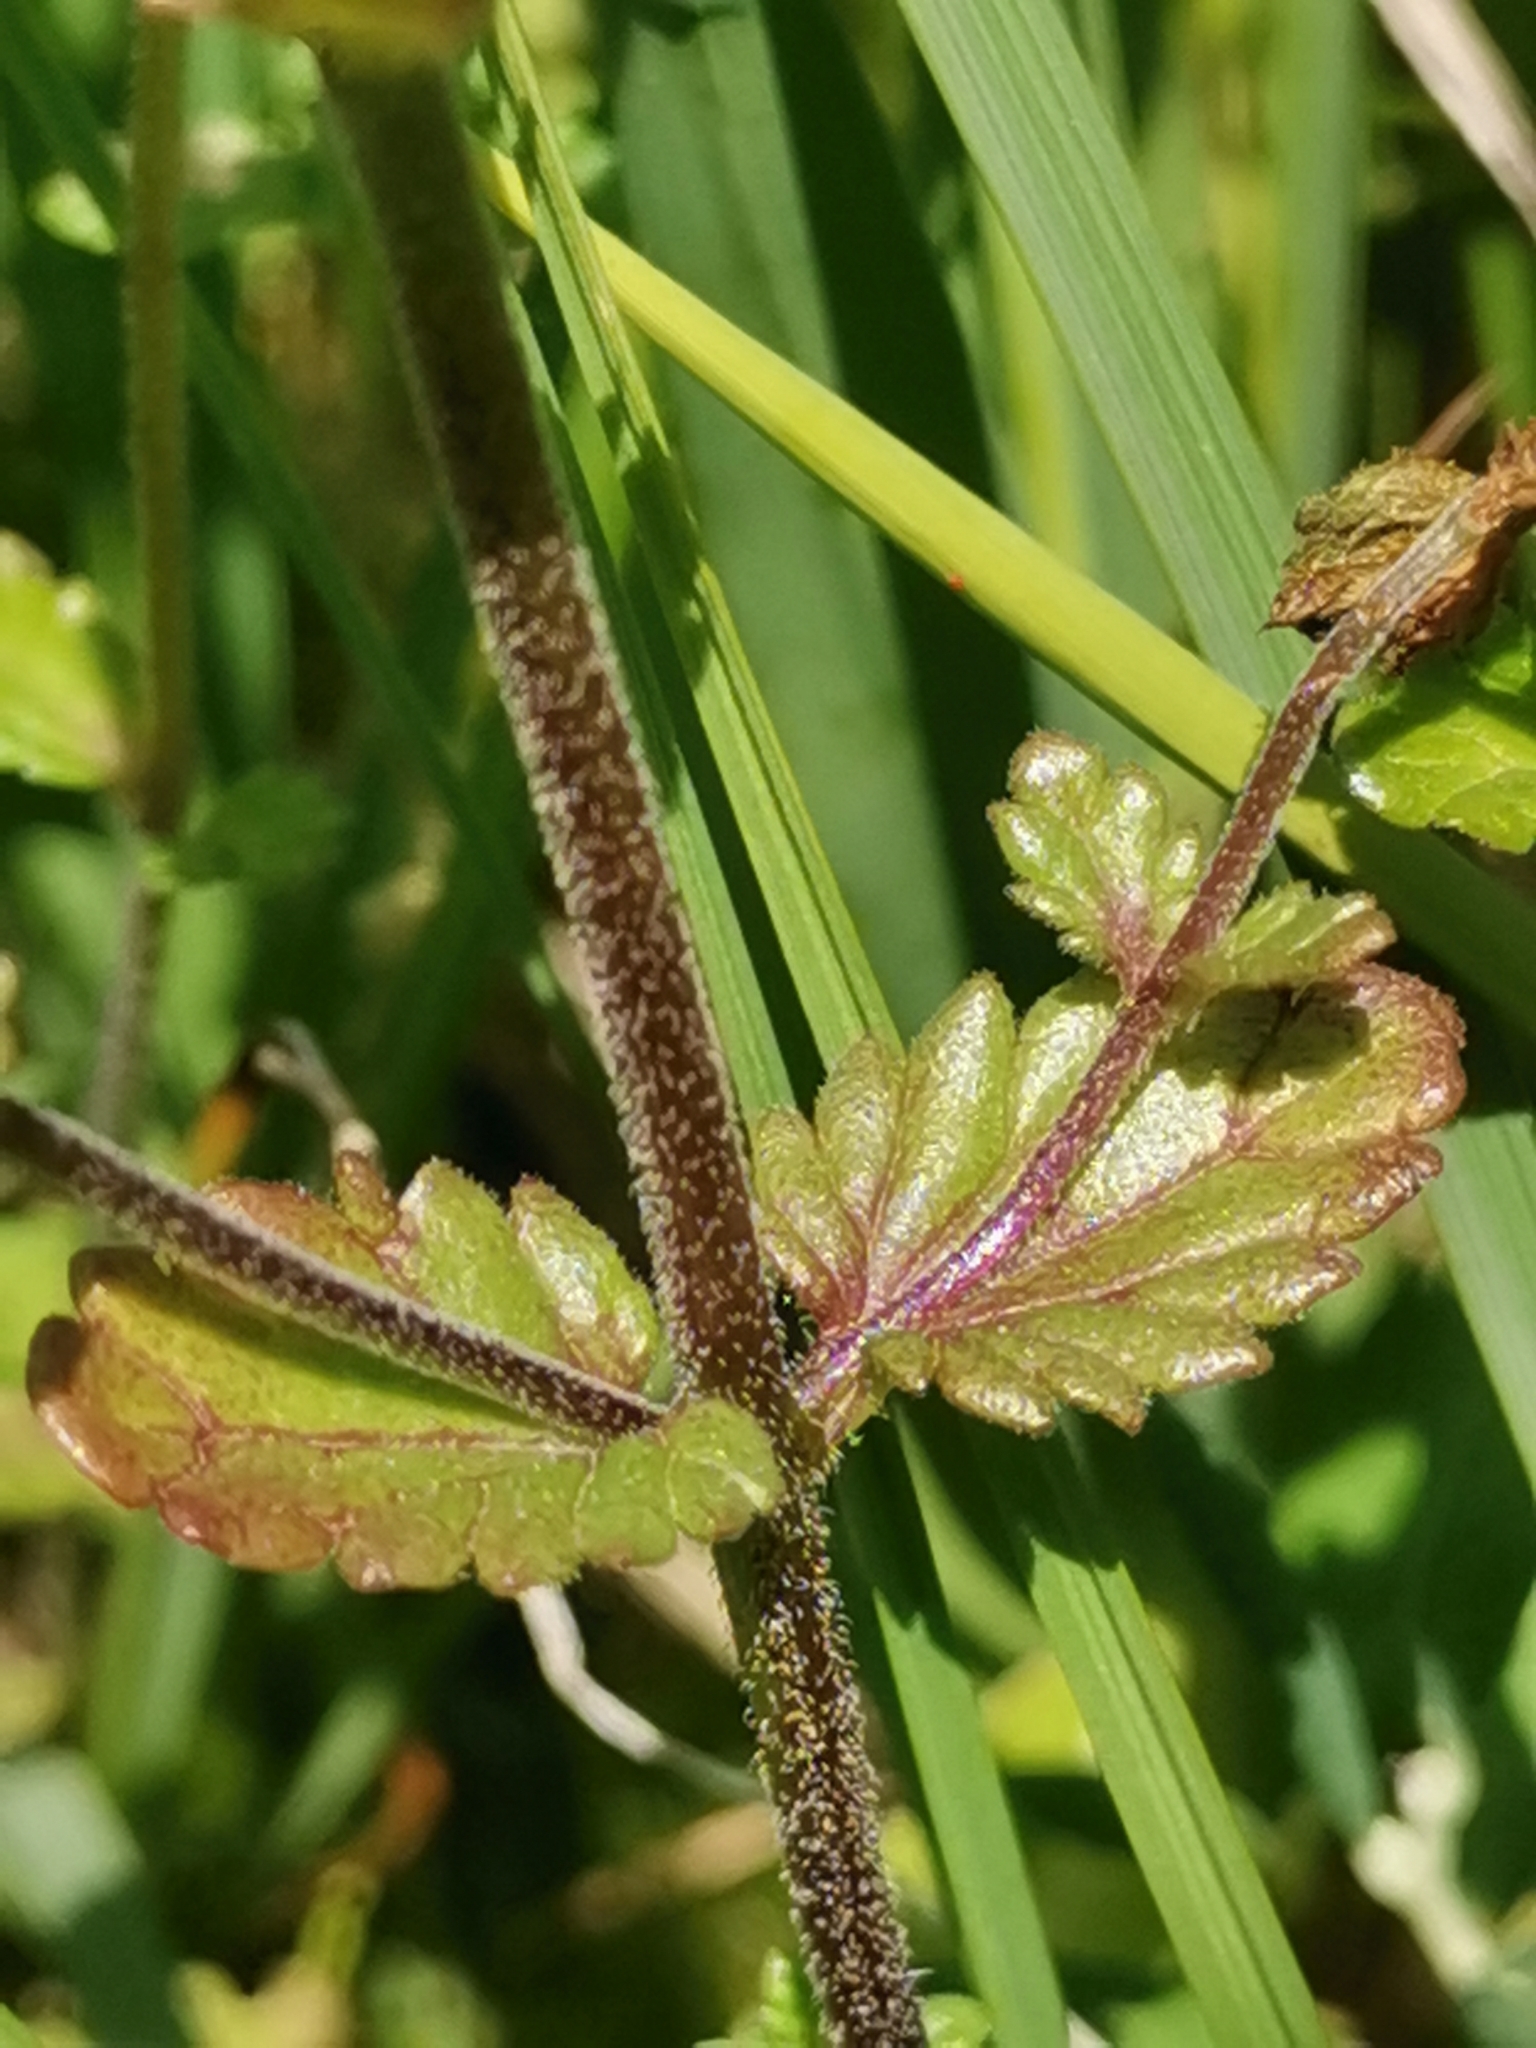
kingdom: Plantae
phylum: Tracheophyta
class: Magnoliopsida
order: Lamiales
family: Orobanchaceae
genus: Euphrasia
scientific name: Euphrasia officinalis
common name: Eyebright
